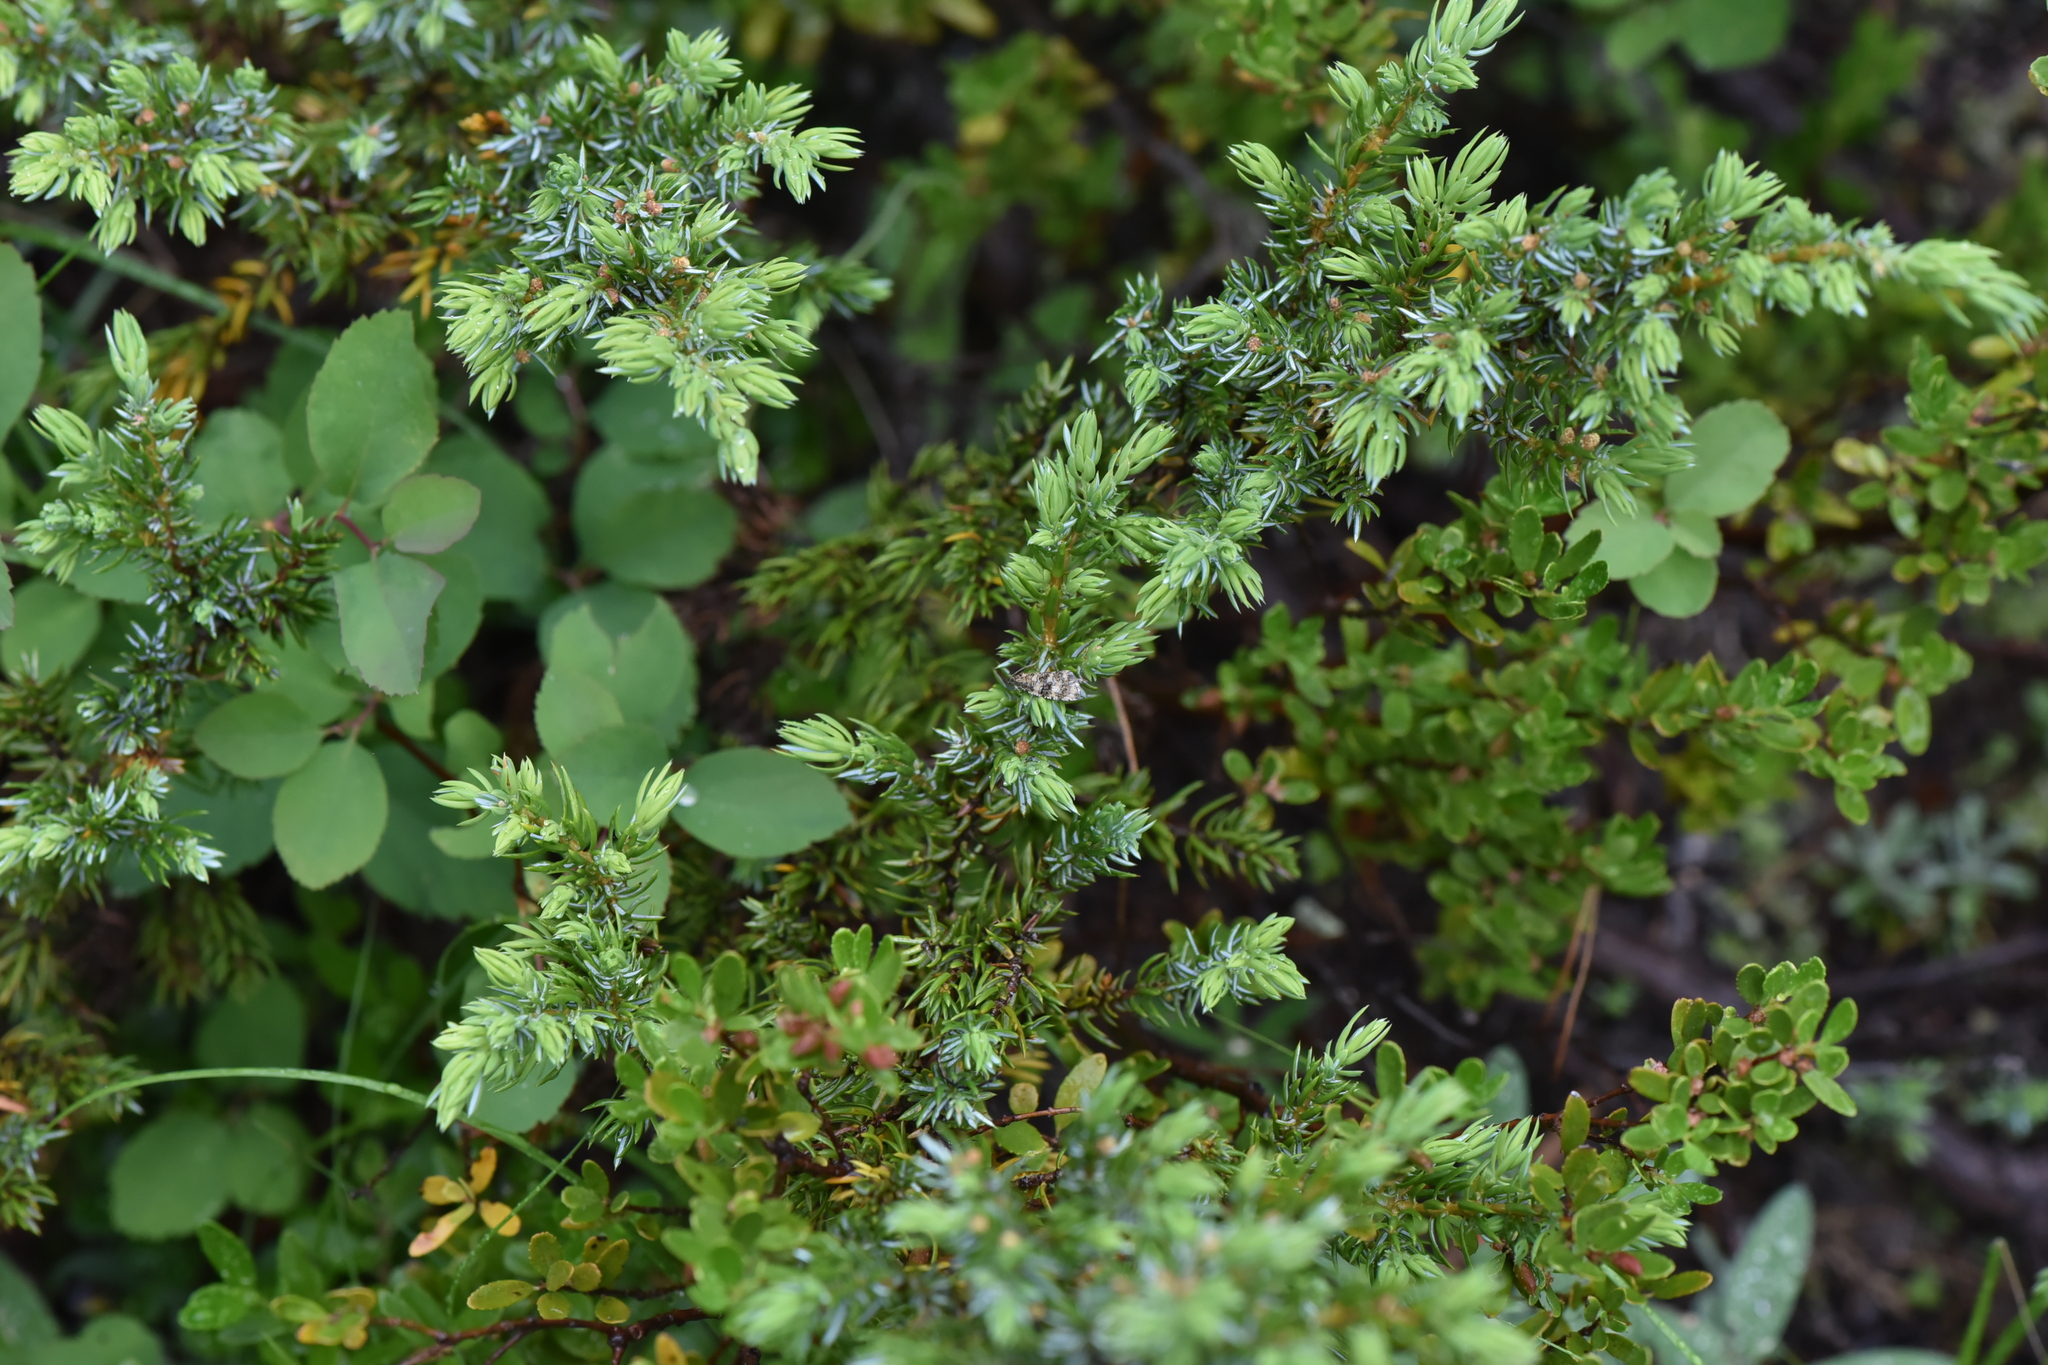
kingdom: Plantae
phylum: Tracheophyta
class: Pinopsida
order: Pinales
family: Cupressaceae
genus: Juniperus
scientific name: Juniperus communis
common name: Common juniper
